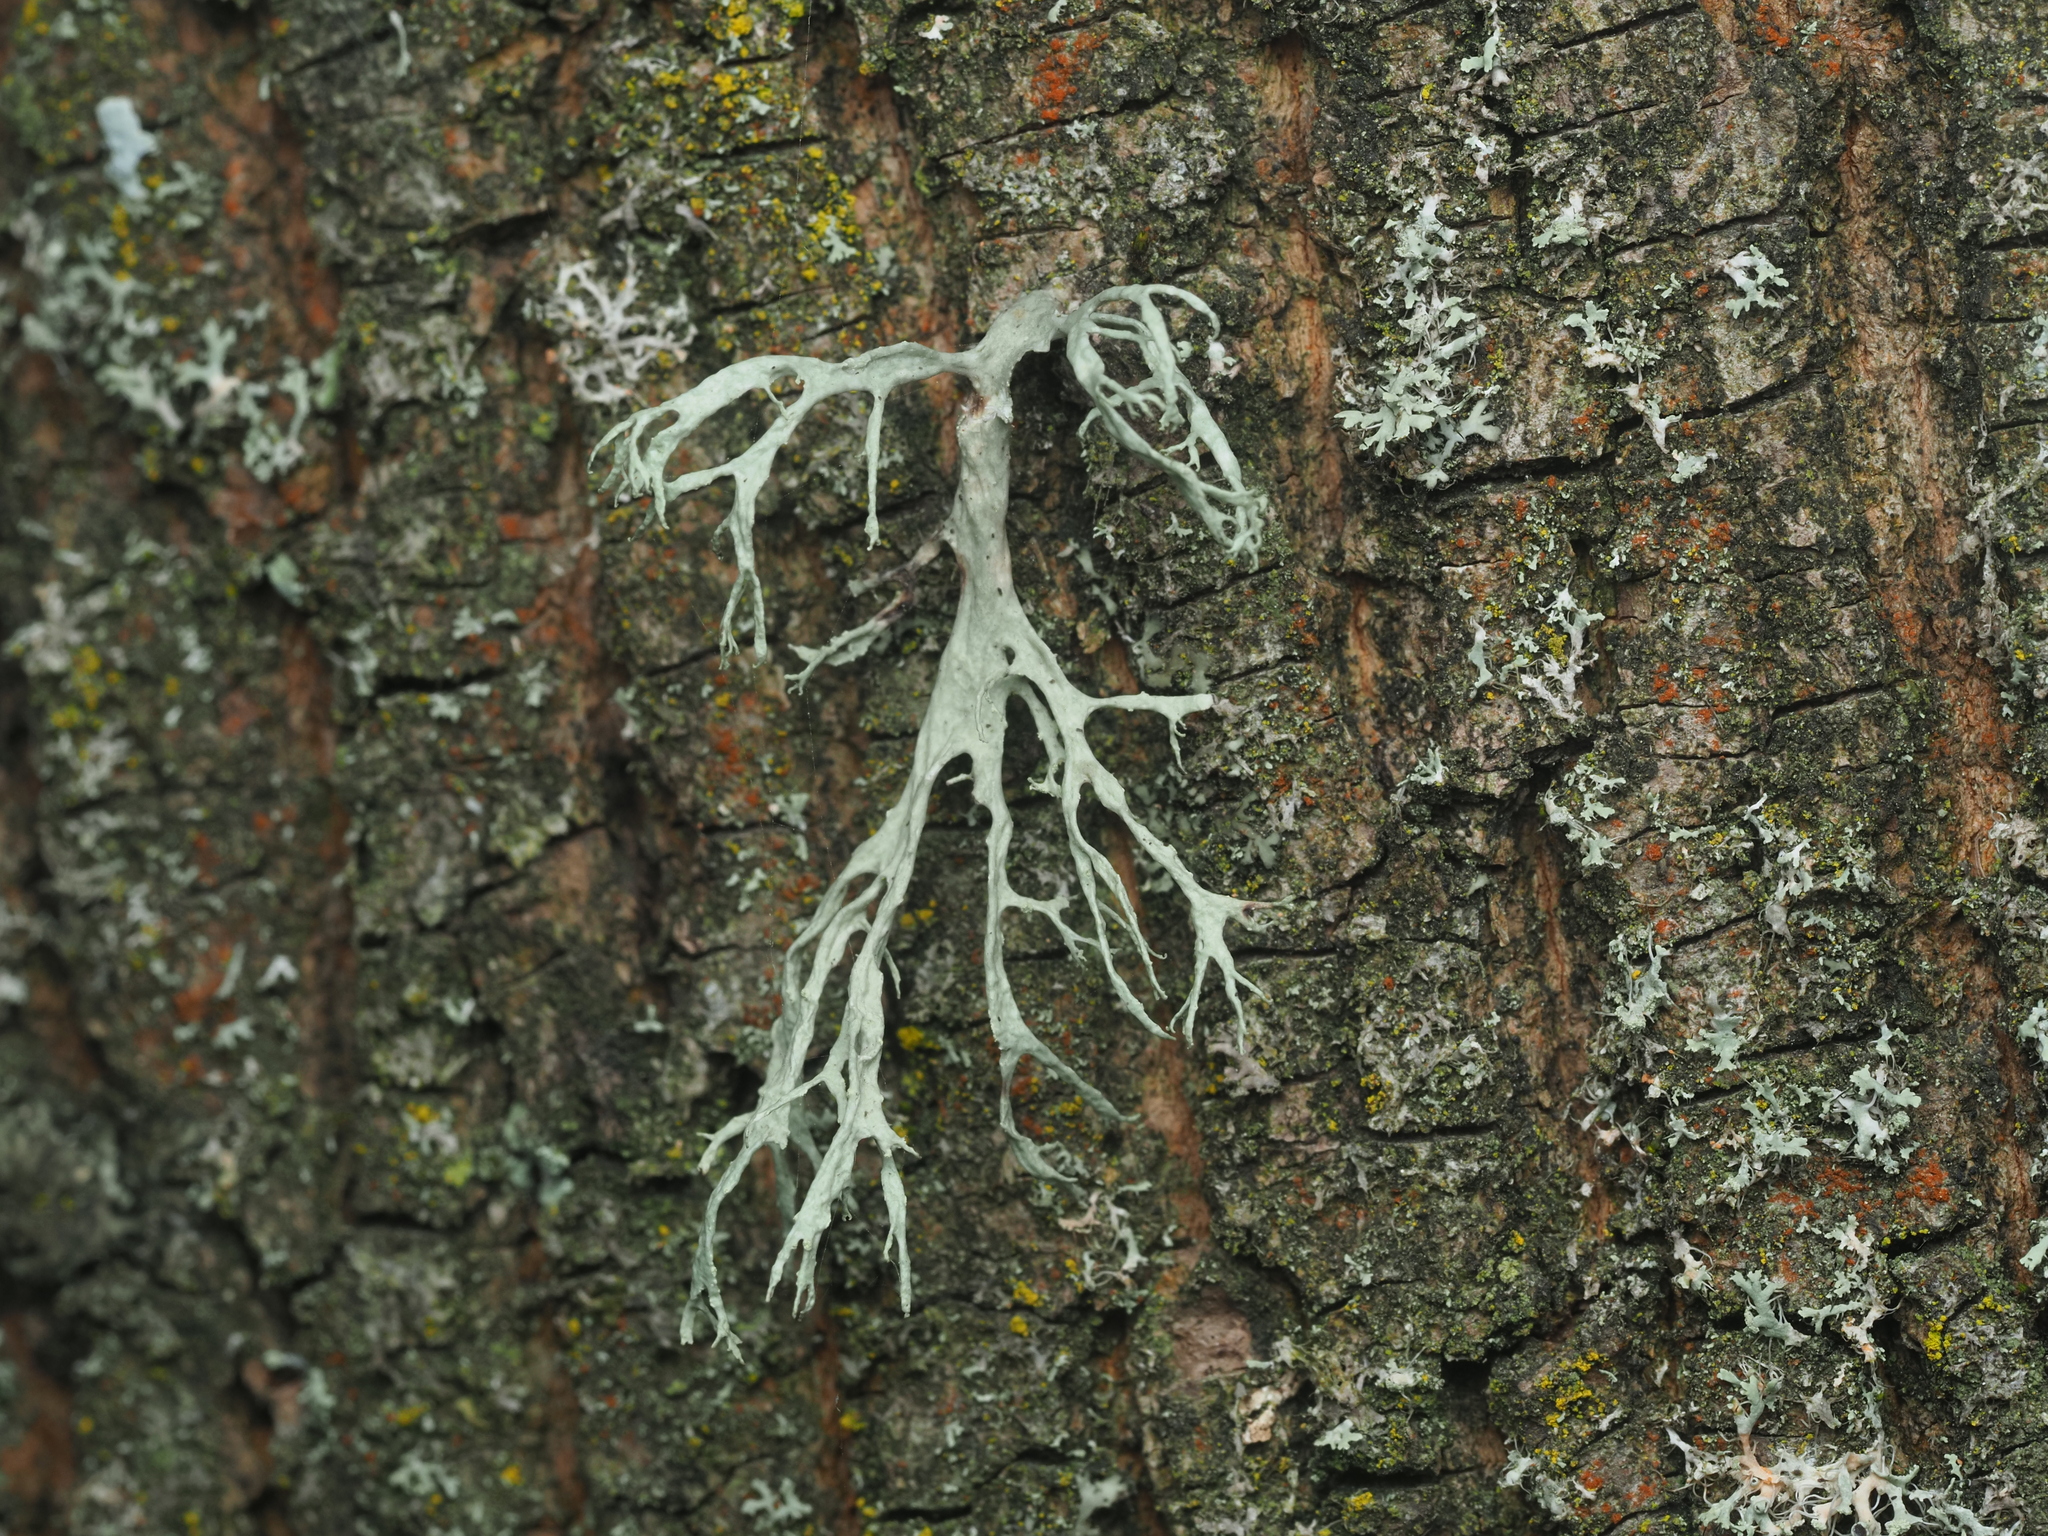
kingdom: Fungi
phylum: Ascomycota
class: Lecanoromycetes
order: Lecanorales
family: Ramalinaceae
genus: Ramalina
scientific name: Ramalina farinacea
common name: Farinose cartilage lichen
